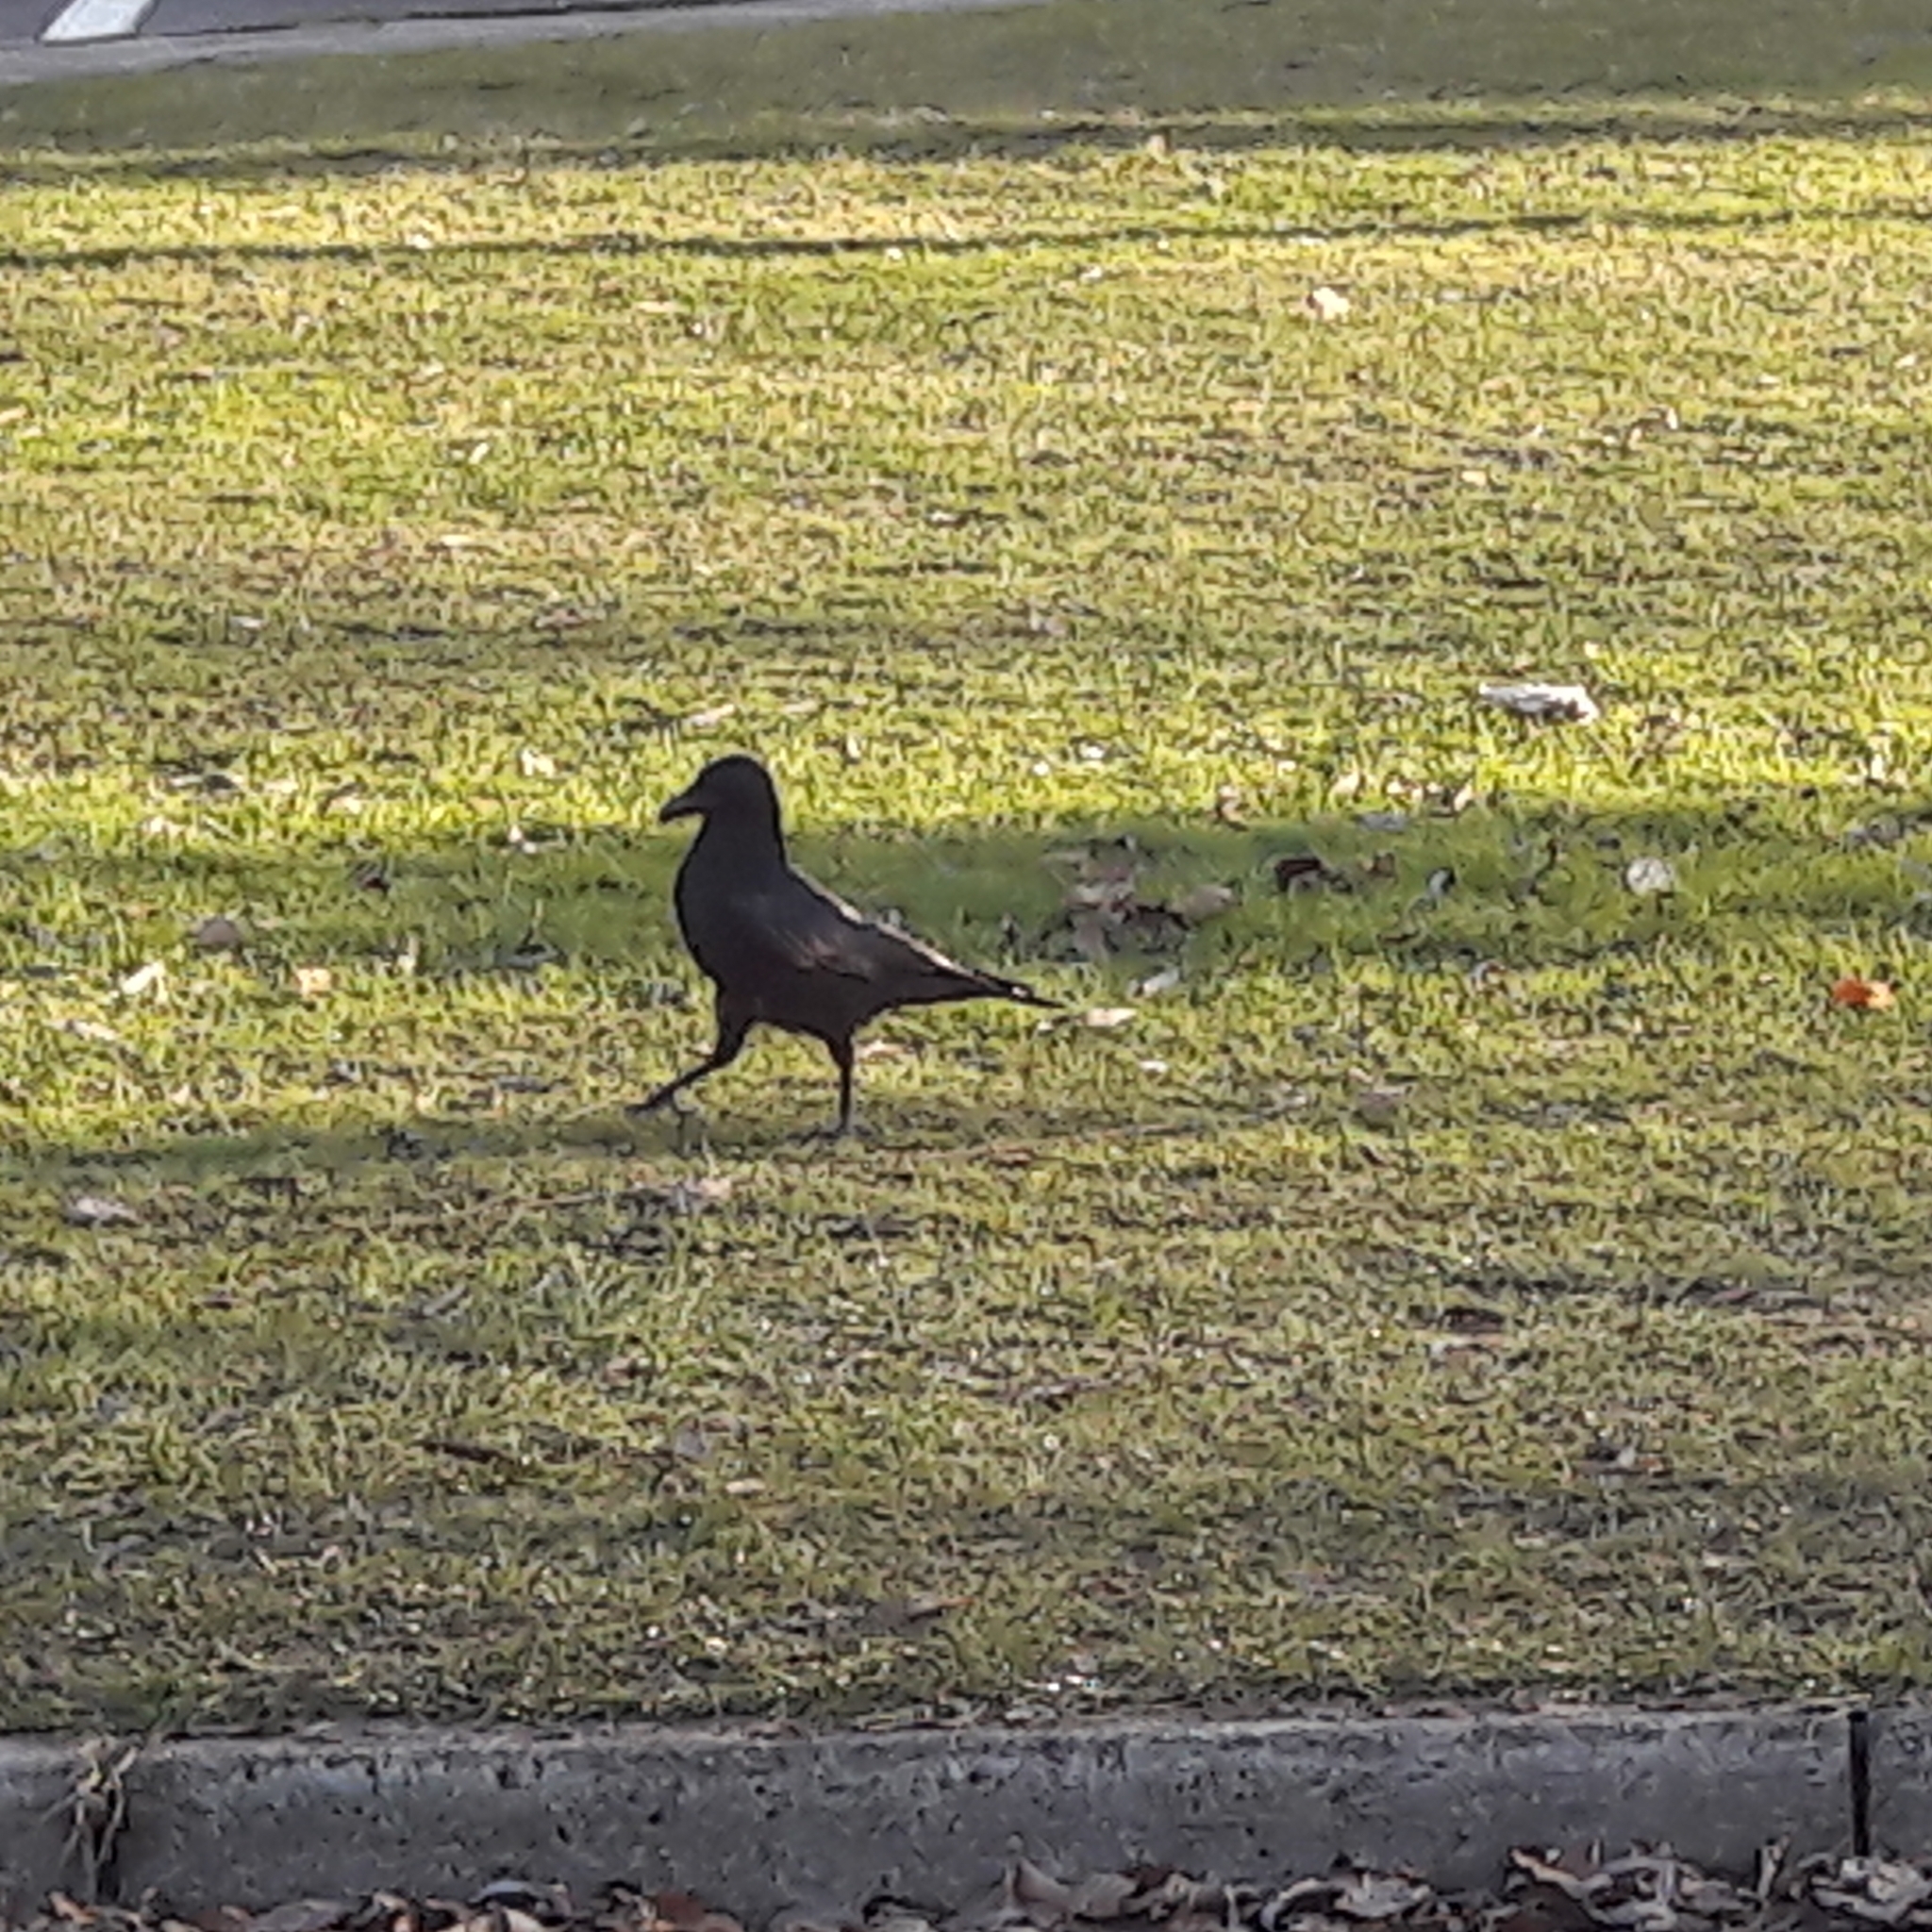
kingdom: Animalia
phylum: Chordata
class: Aves
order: Passeriformes
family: Corvidae
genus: Corvus
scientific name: Corvus corone
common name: Carrion crow
